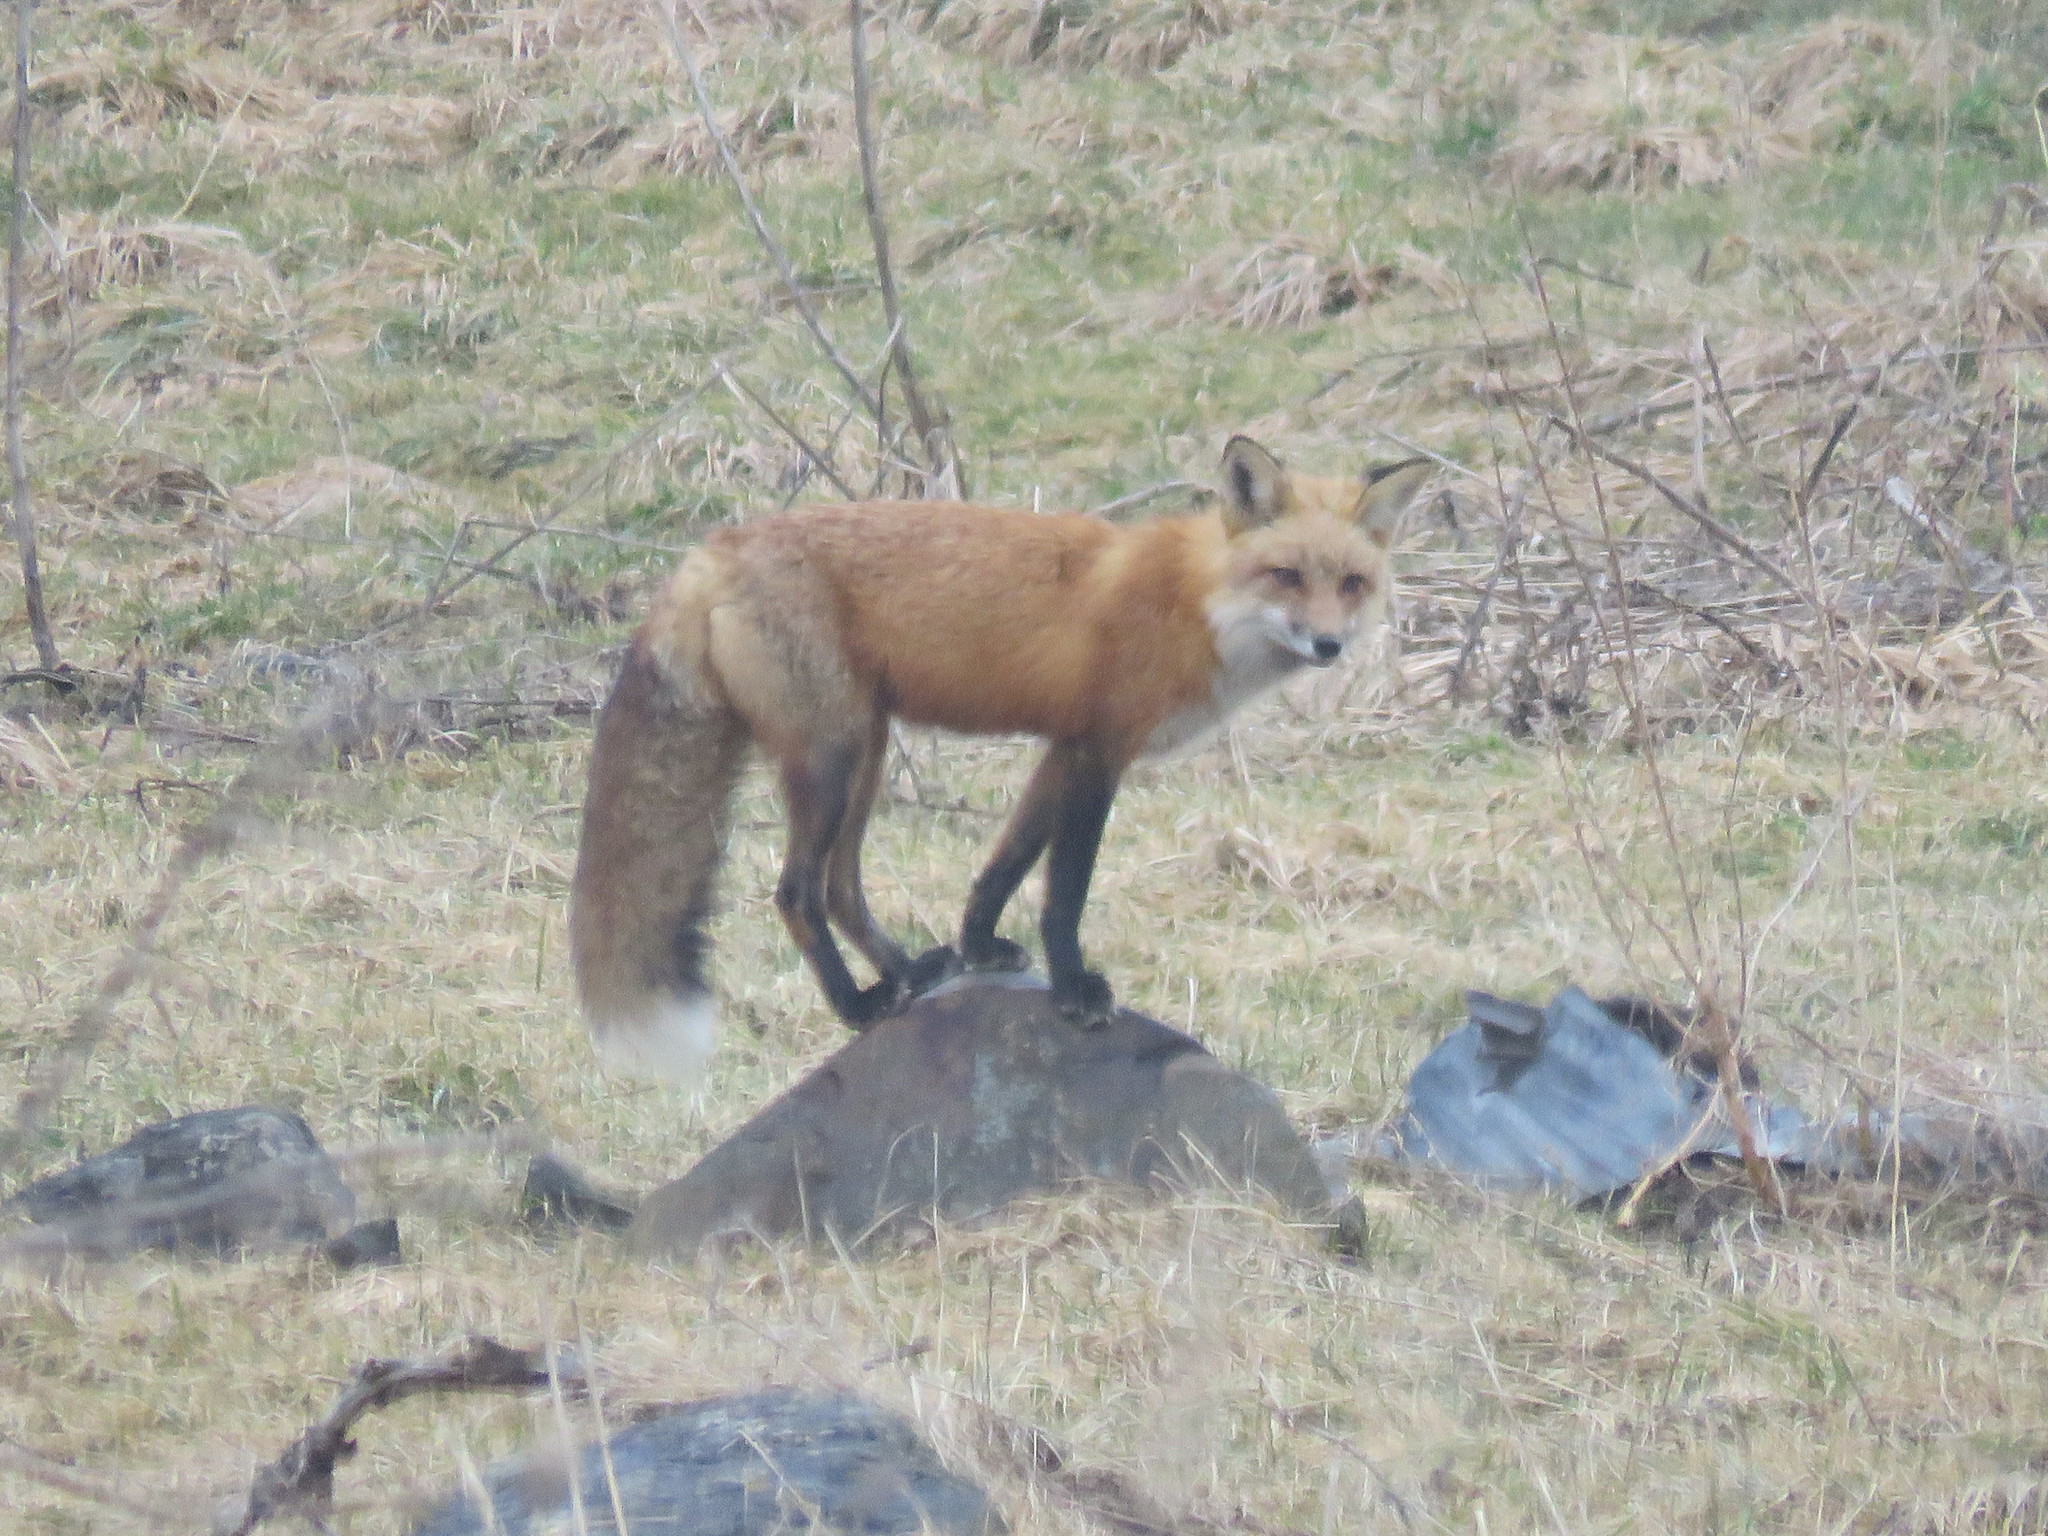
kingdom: Animalia
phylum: Chordata
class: Mammalia
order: Carnivora
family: Canidae
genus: Vulpes
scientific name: Vulpes vulpes
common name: Red fox
